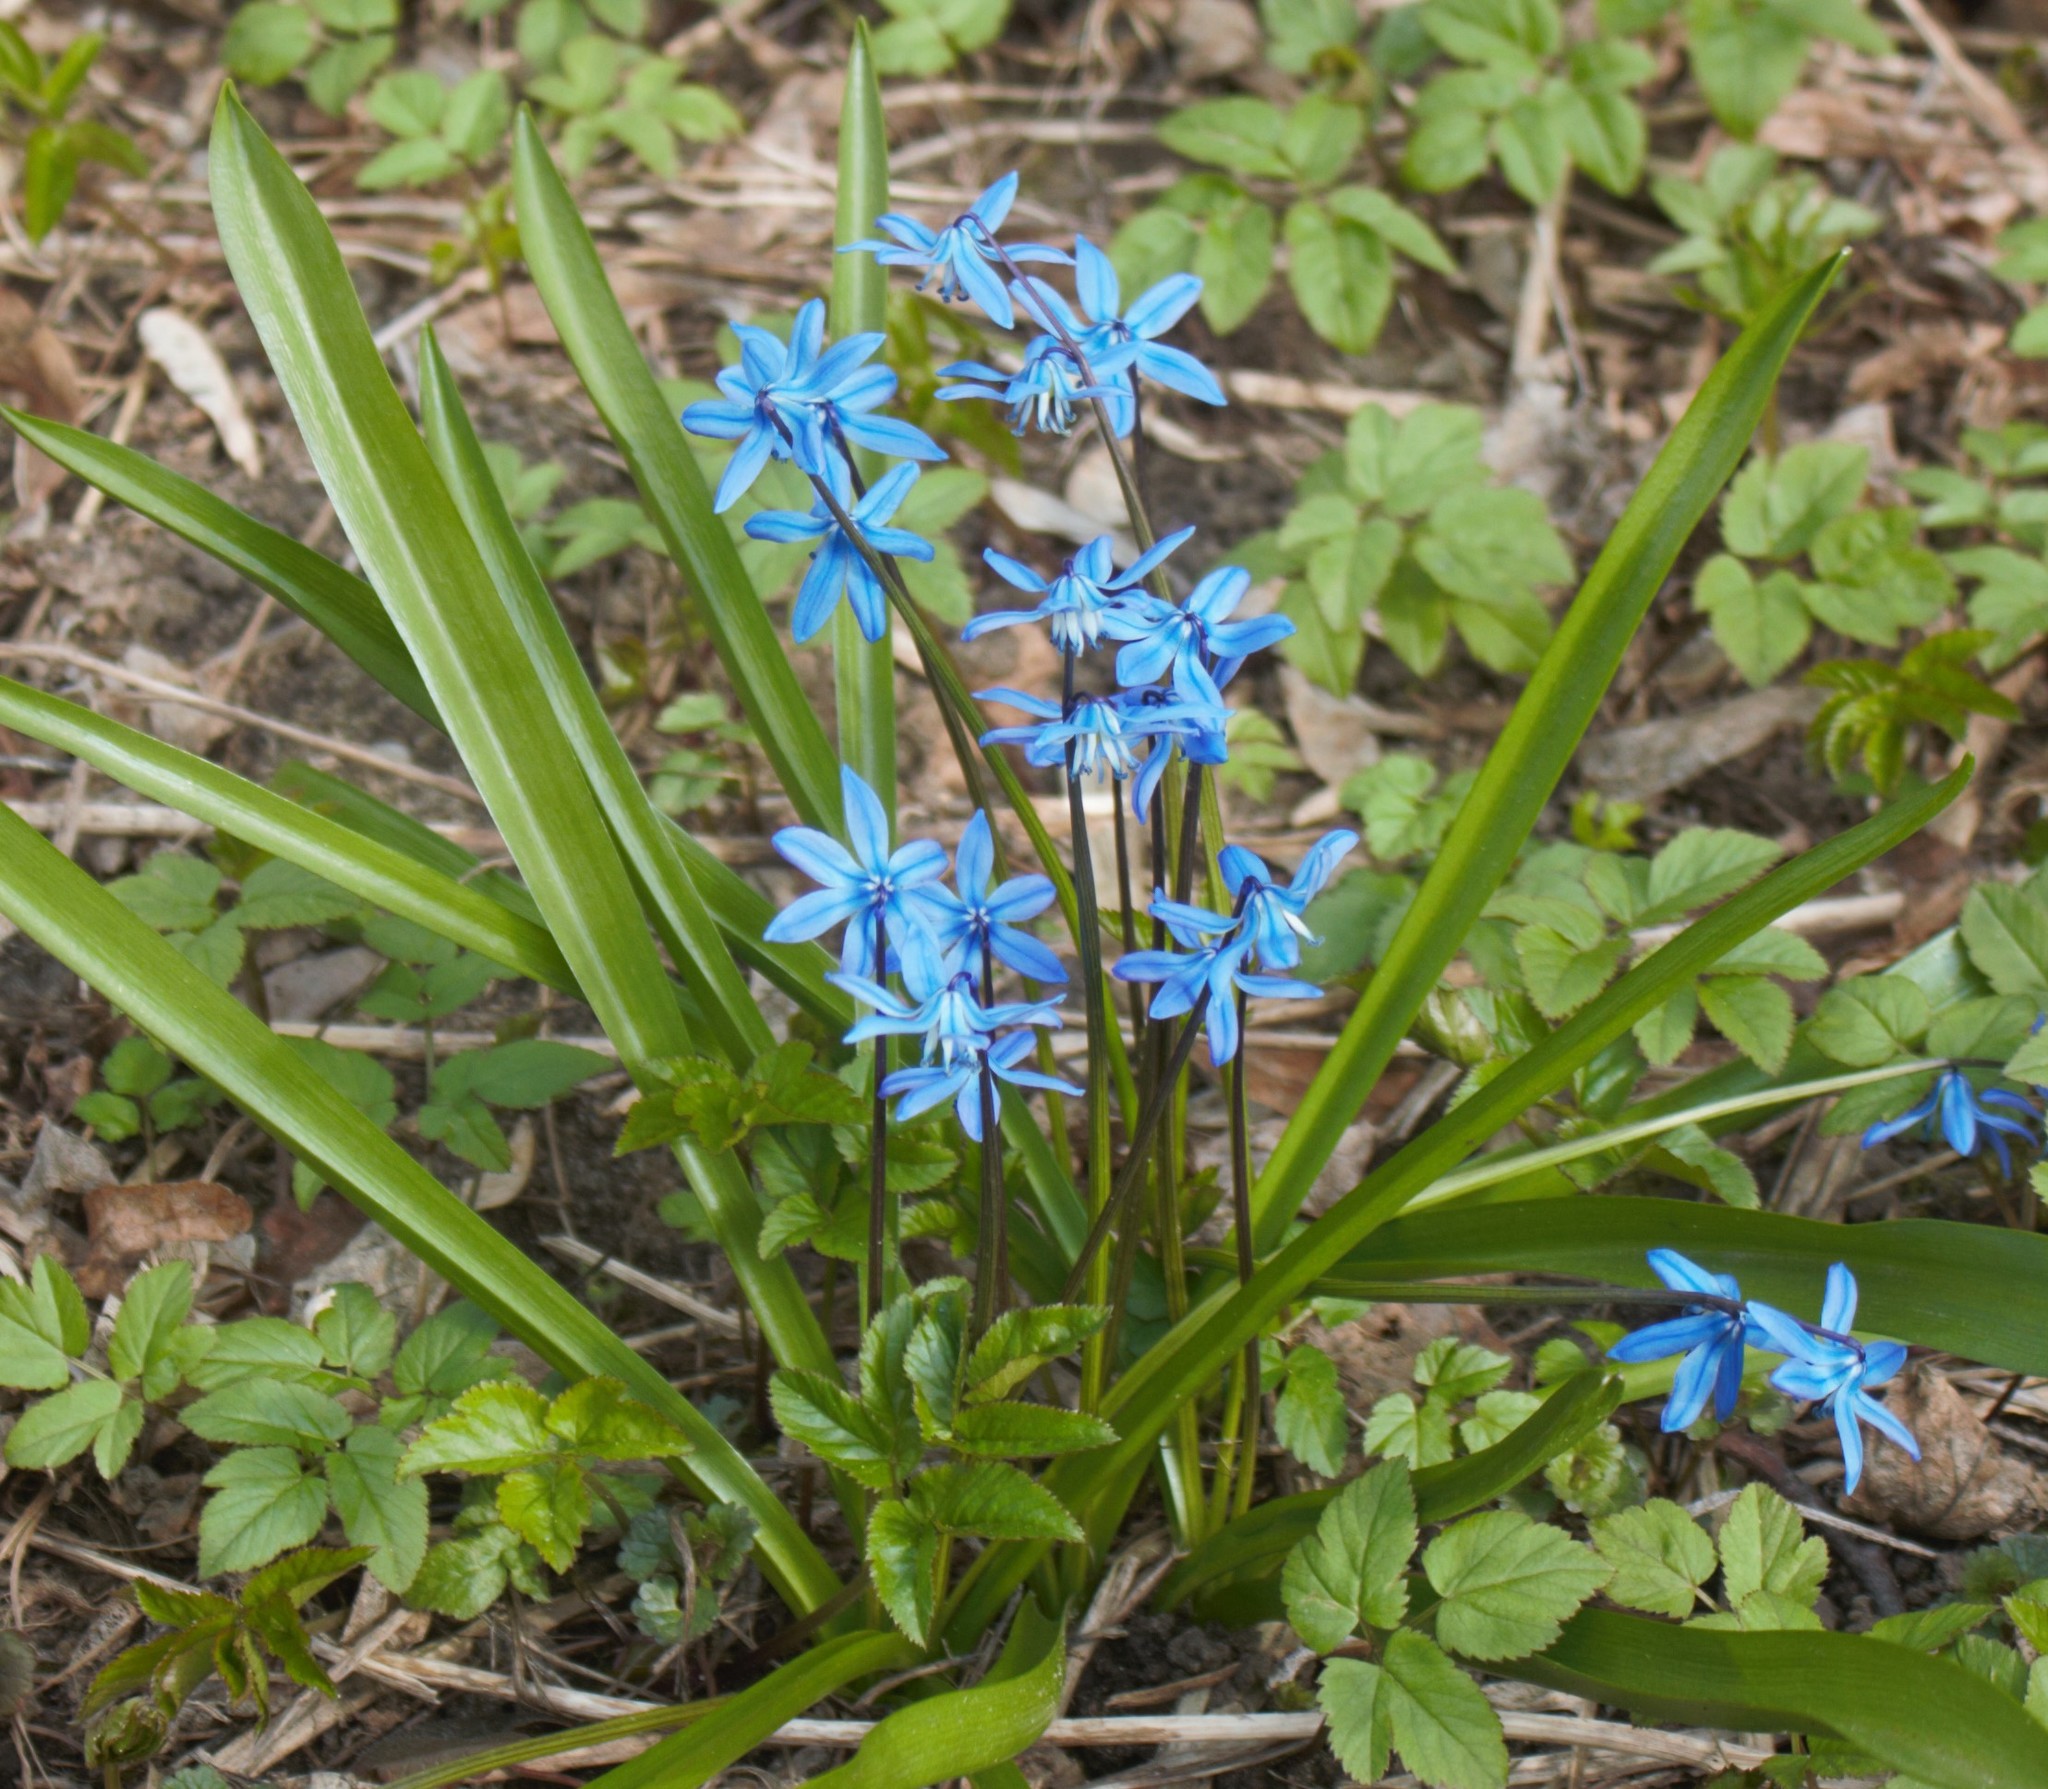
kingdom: Plantae
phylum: Tracheophyta
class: Liliopsida
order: Asparagales
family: Asparagaceae
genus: Scilla
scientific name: Scilla siberica
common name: Siberian squill
